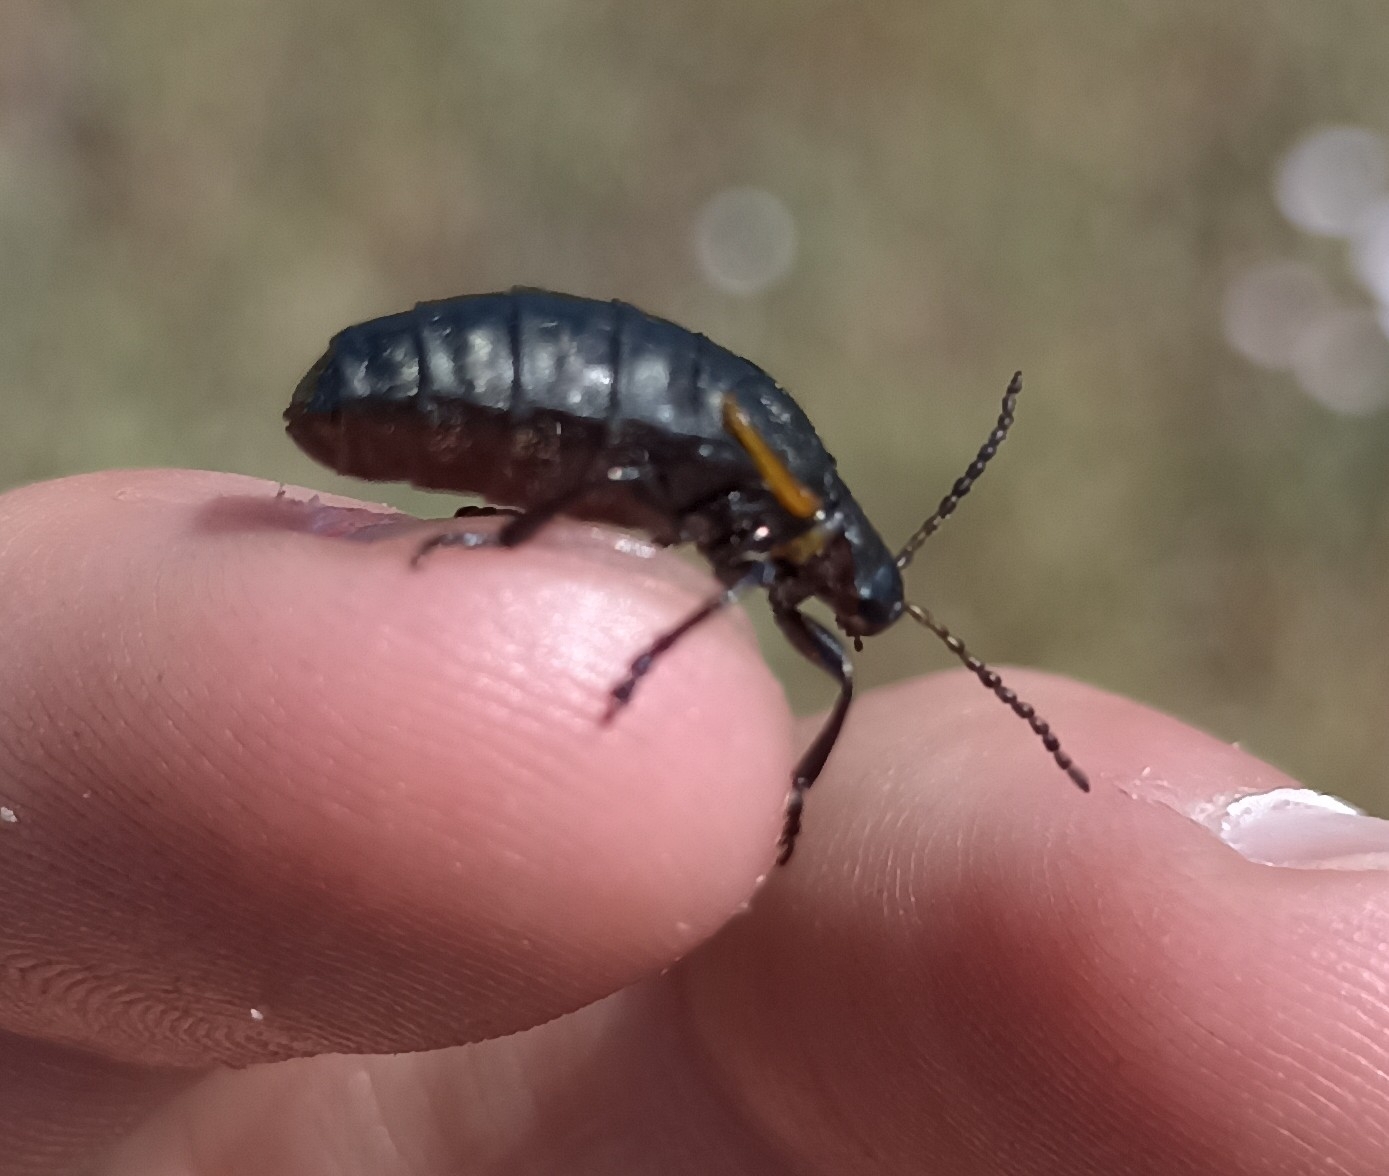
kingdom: Animalia
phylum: Arthropoda
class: Insecta
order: Coleoptera
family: Chrysomelidae
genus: Arima
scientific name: Arima marginata
